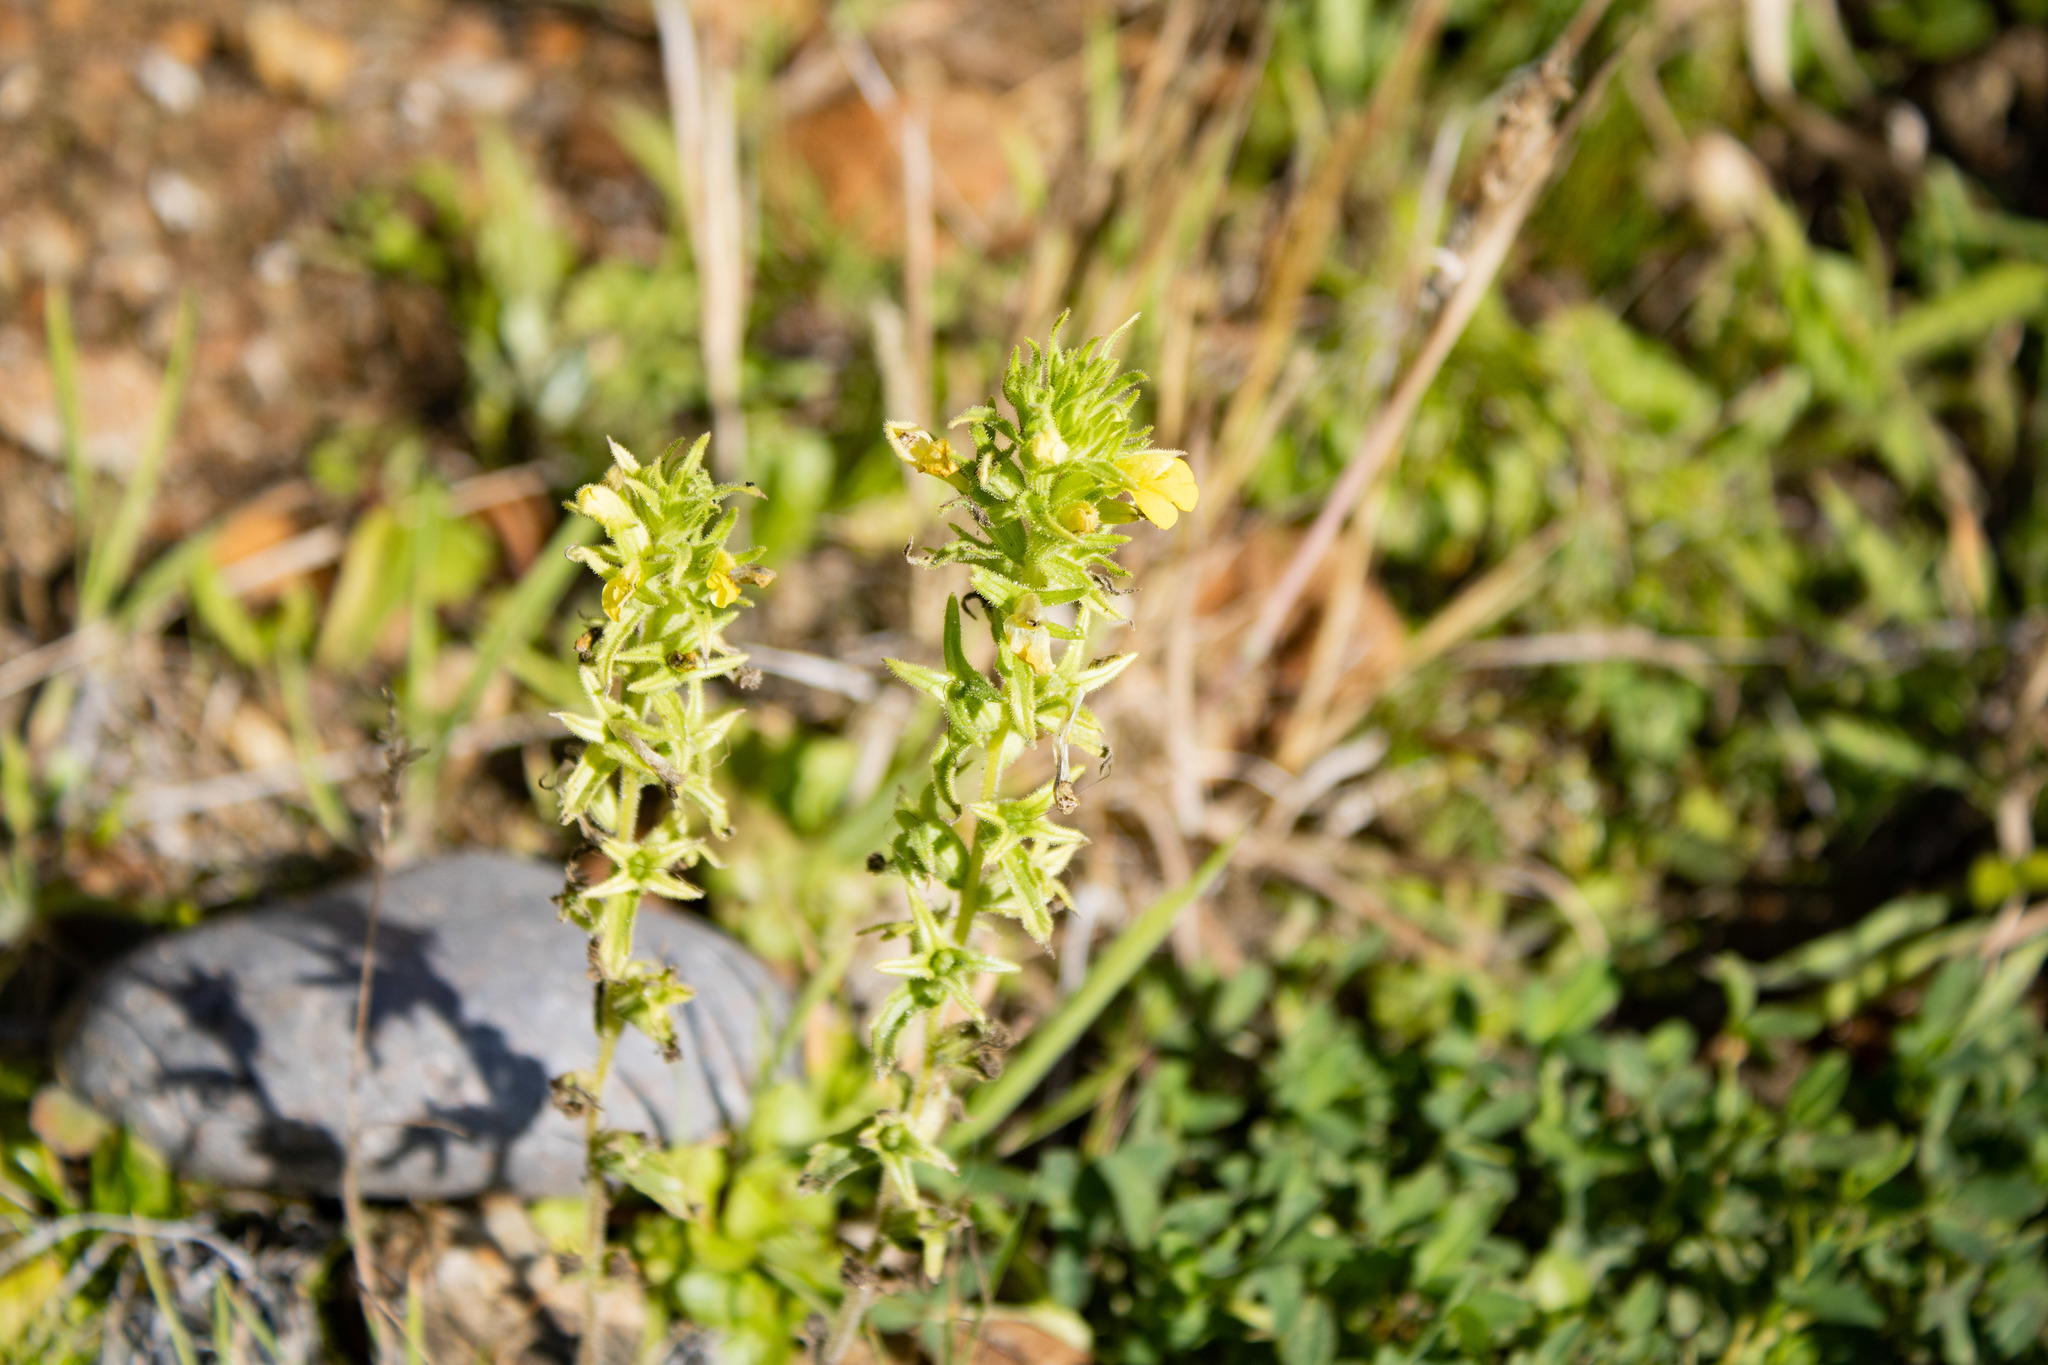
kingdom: Plantae
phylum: Tracheophyta
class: Magnoliopsida
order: Lamiales
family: Orobanchaceae
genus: Bellardia
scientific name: Bellardia viscosa
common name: Sticky parentucellia
